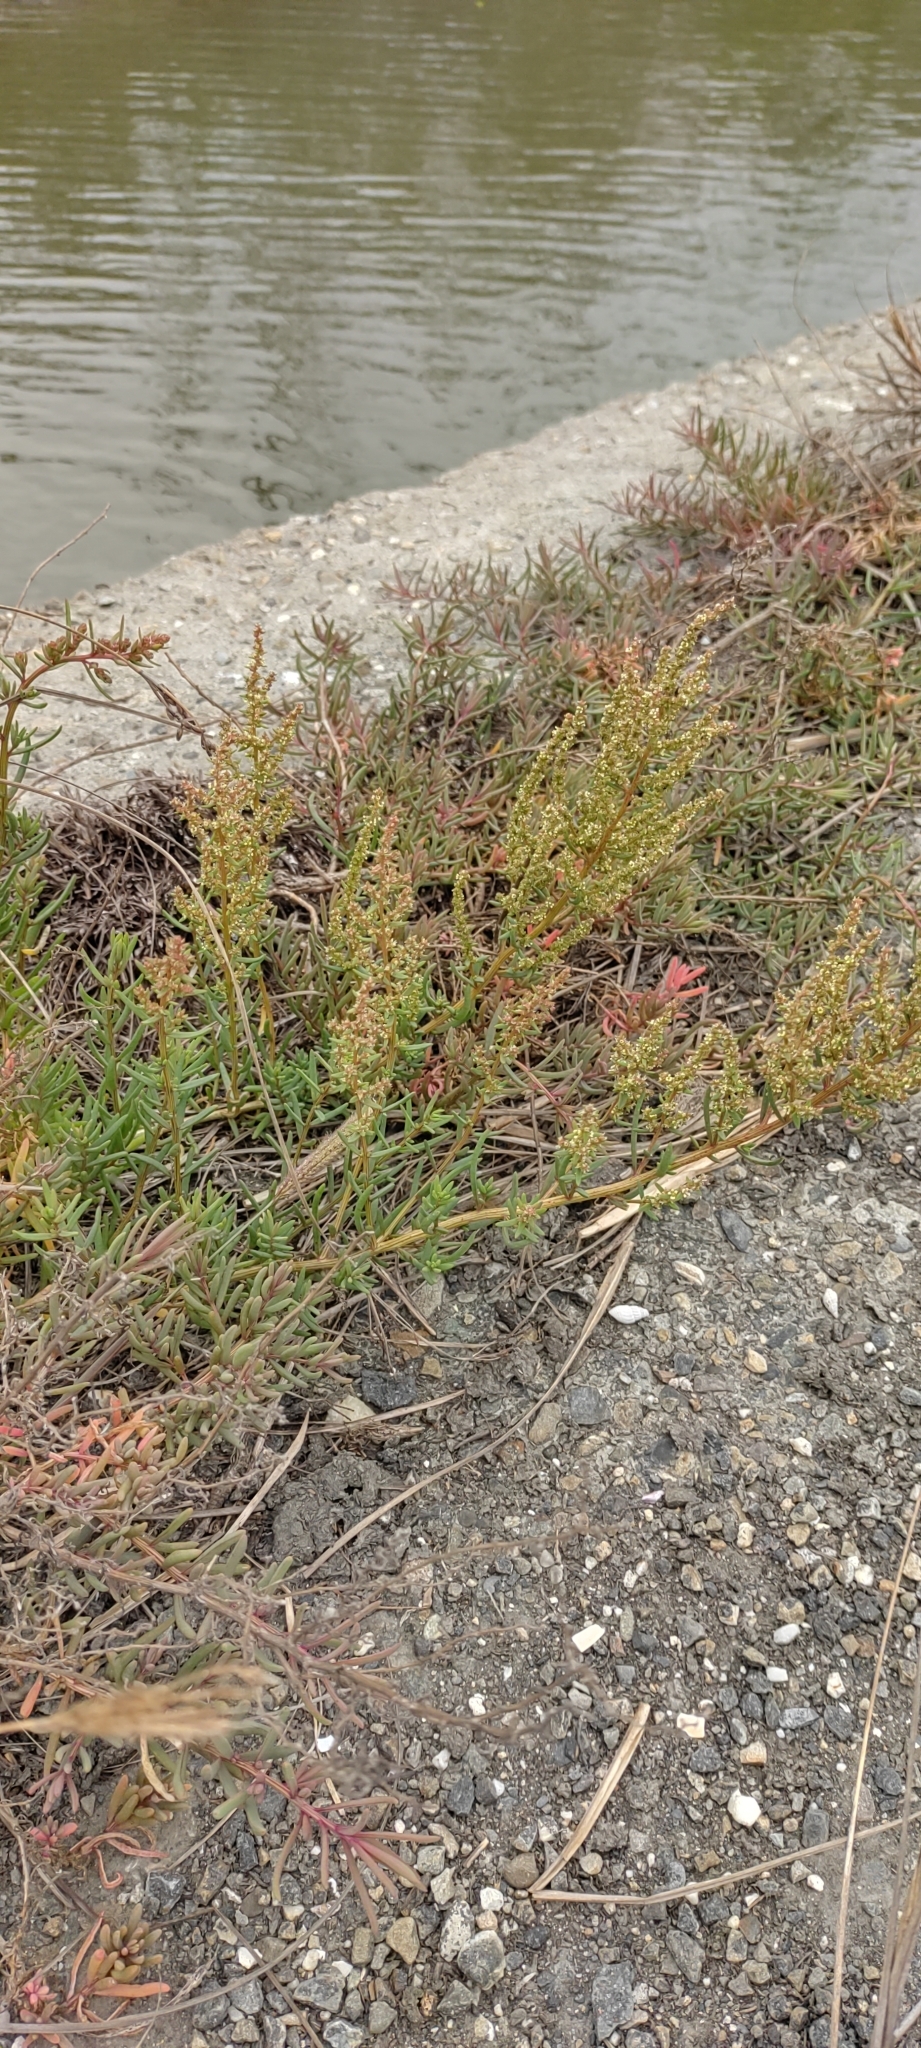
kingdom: Plantae
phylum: Tracheophyta
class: Magnoliopsida
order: Caryophyllales
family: Amaranthaceae
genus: Suaeda
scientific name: Suaeda maritima
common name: Annual sea-blite
